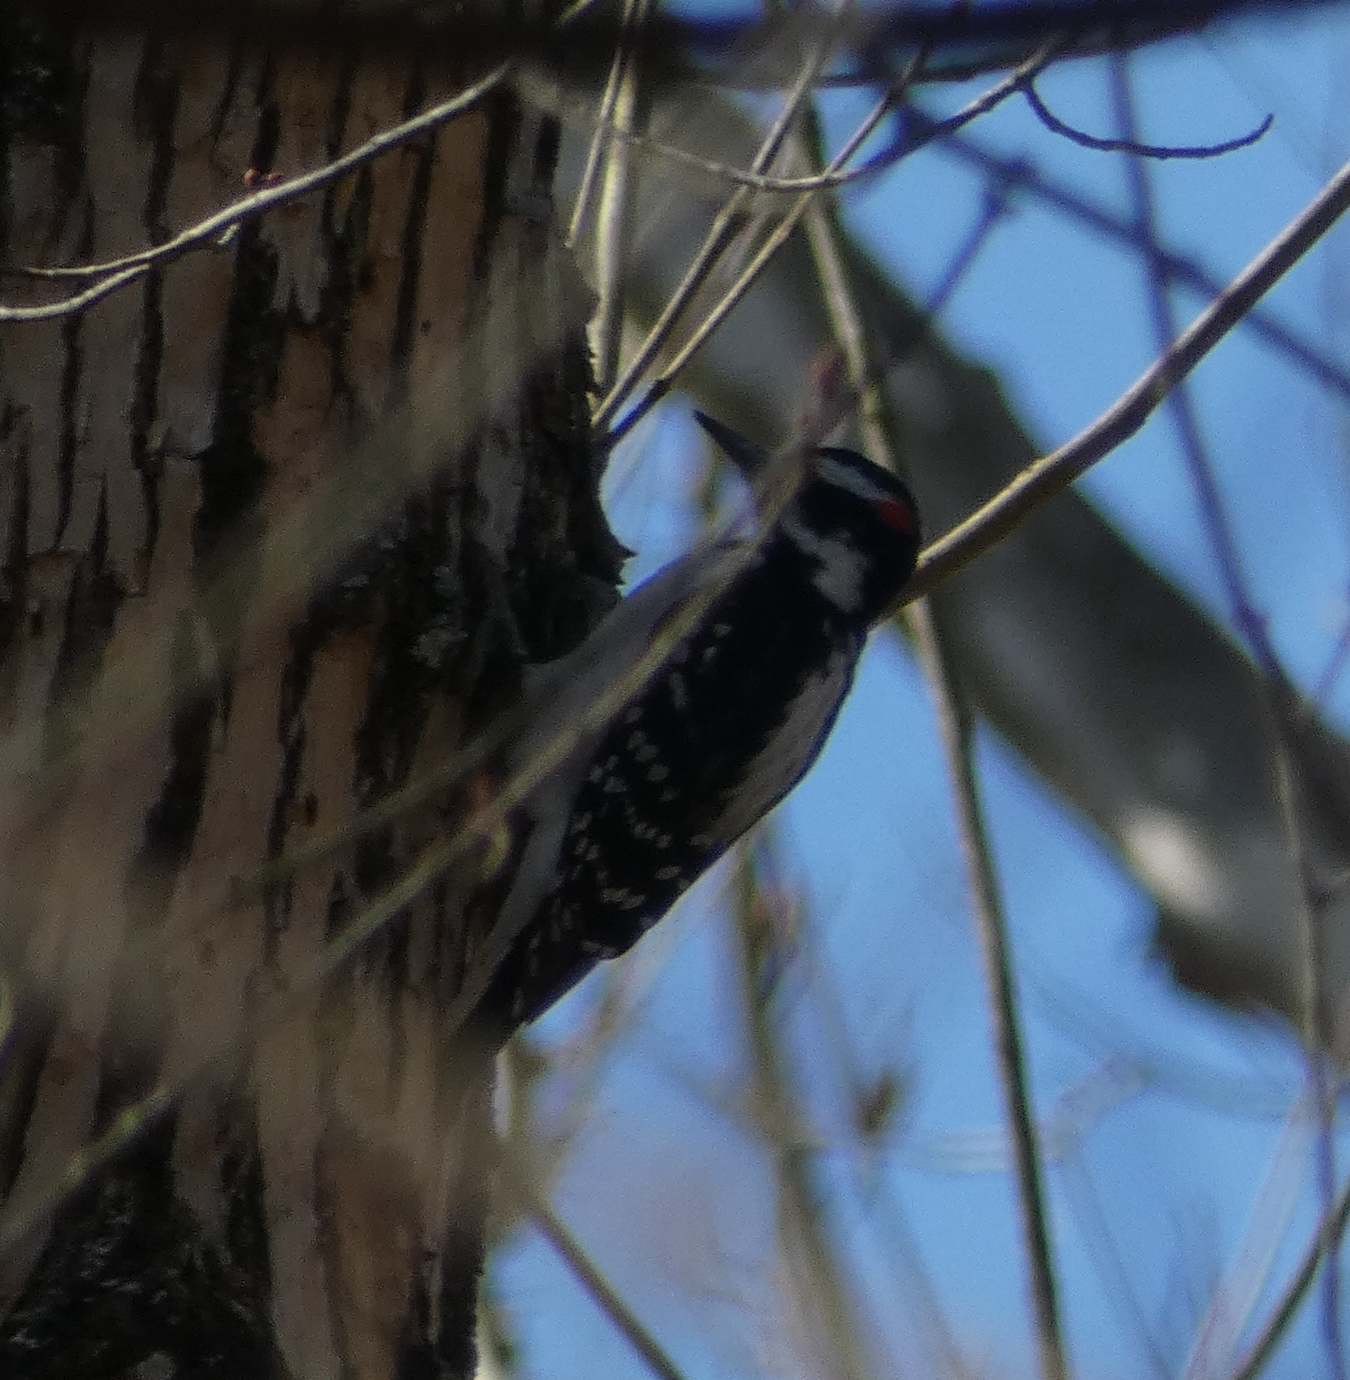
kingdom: Animalia
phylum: Chordata
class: Aves
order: Piciformes
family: Picidae
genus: Leuconotopicus
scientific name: Leuconotopicus villosus
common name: Hairy woodpecker
